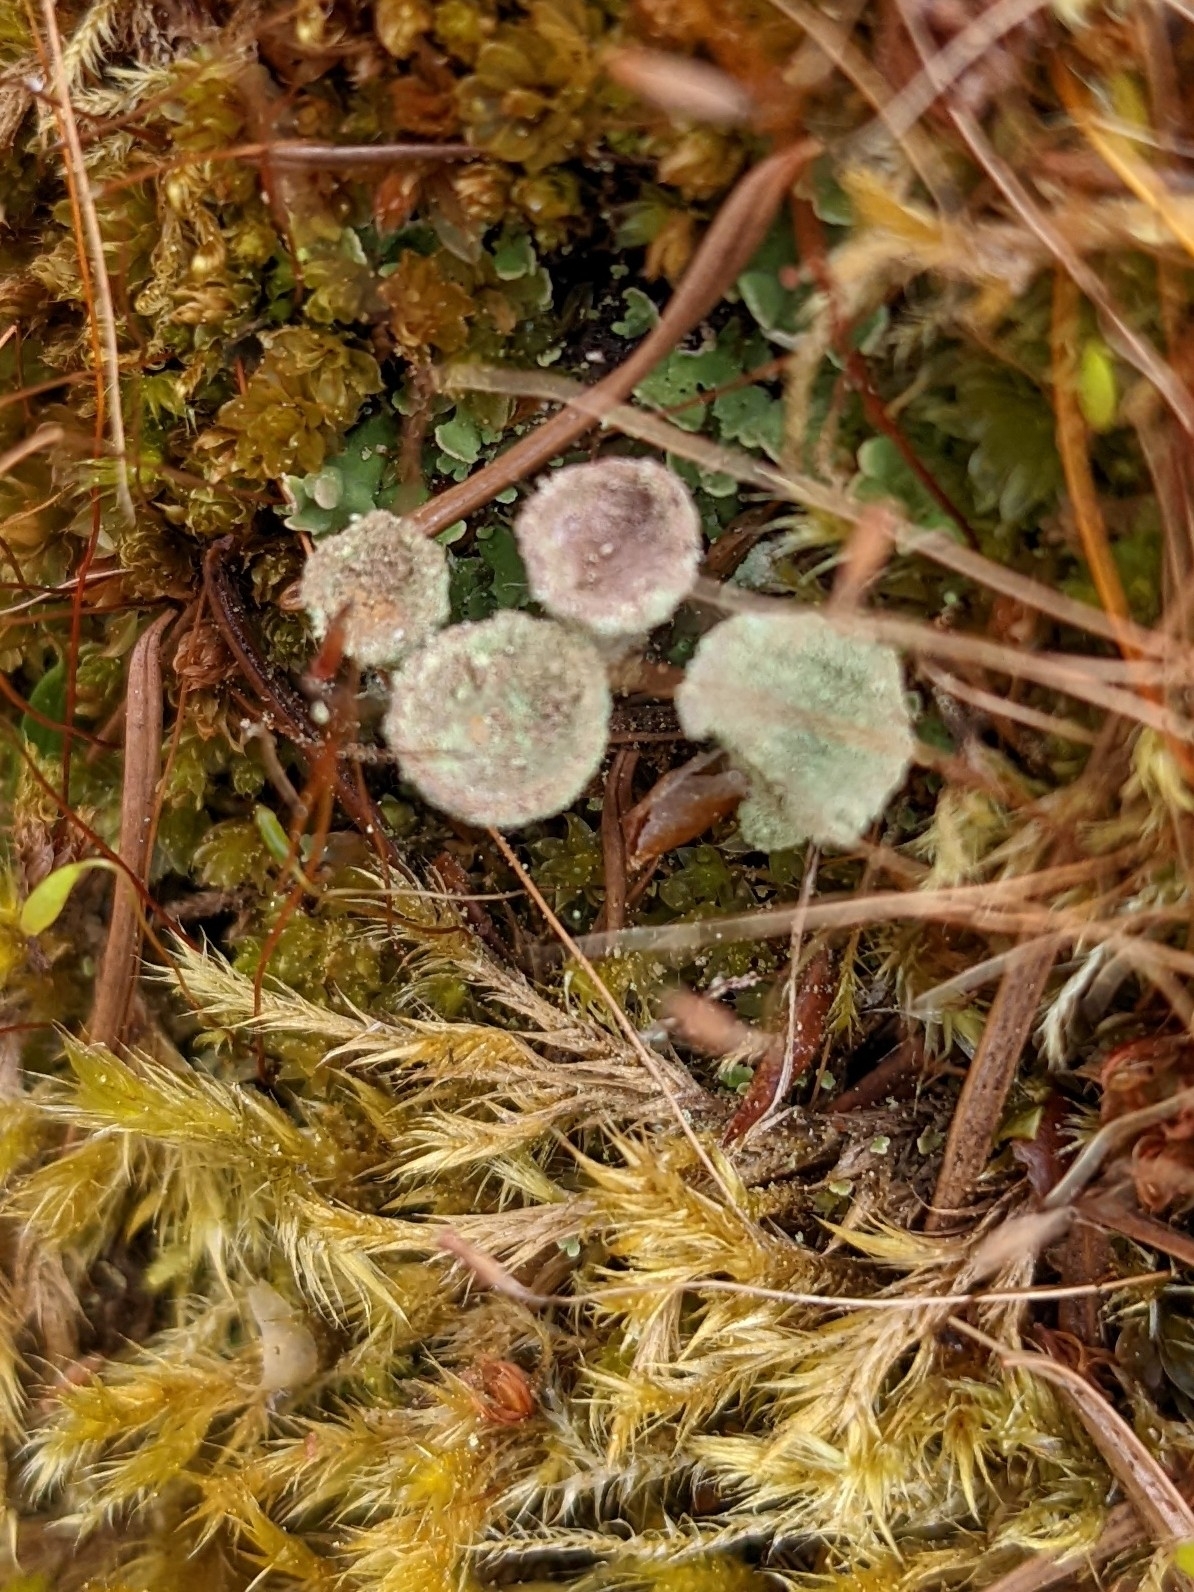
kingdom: Fungi
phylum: Ascomycota
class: Lecanoromycetes
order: Lecanorales
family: Cladoniaceae
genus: Cladonia
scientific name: Cladonia chlorophaea
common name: Mealy pixie cup
